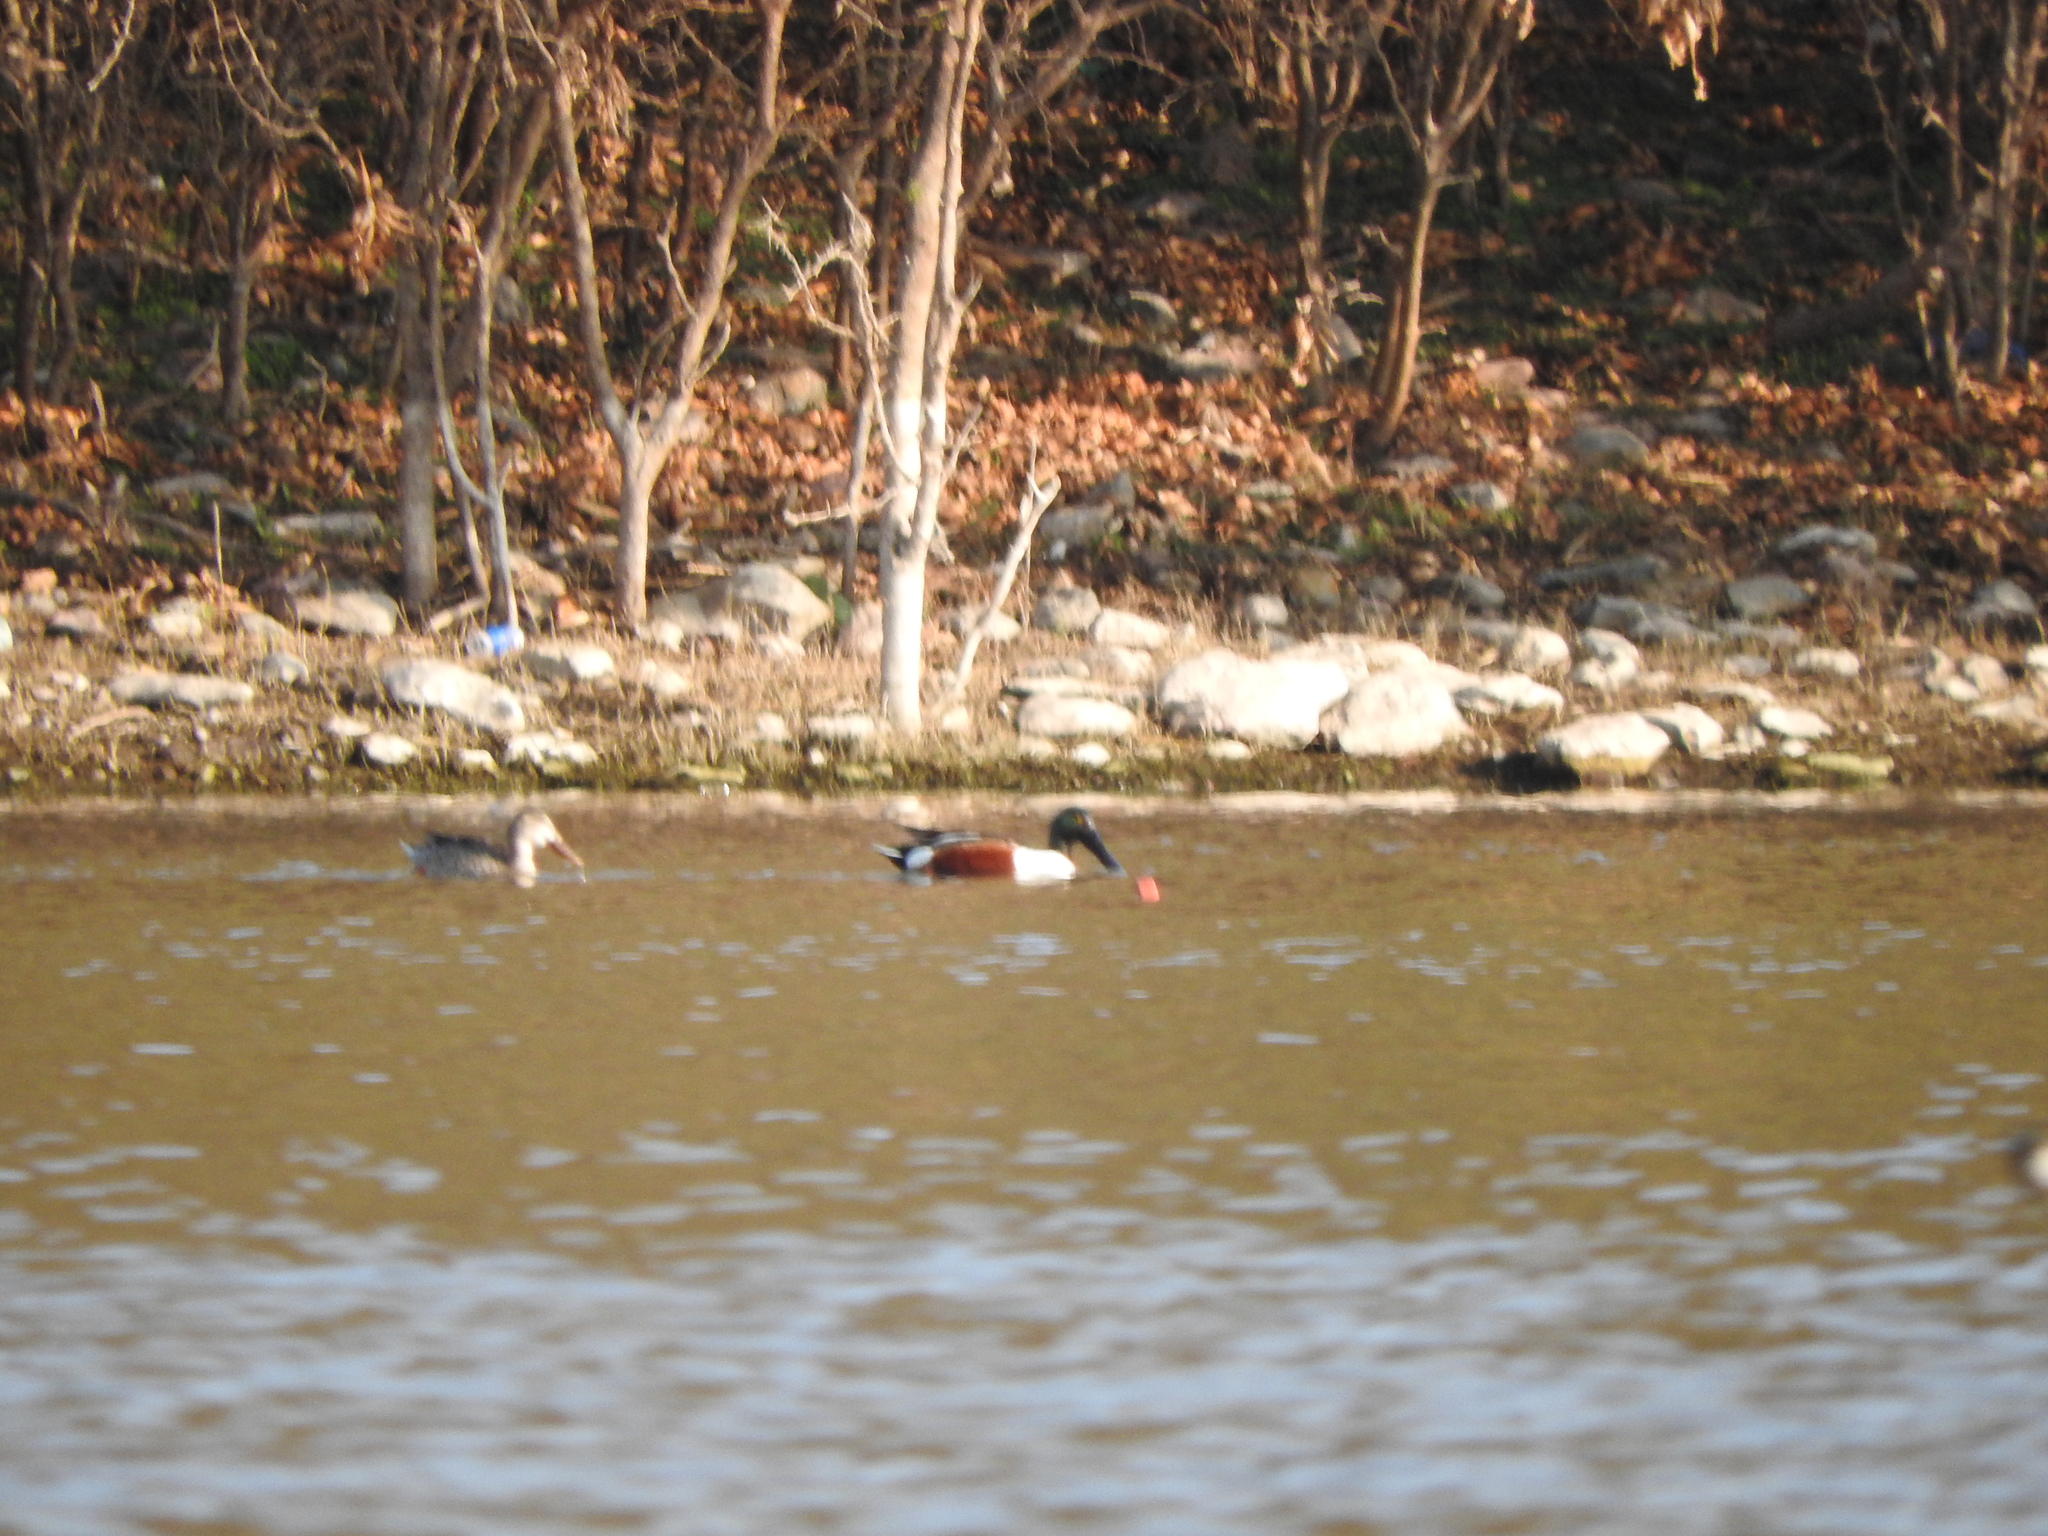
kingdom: Animalia
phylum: Chordata
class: Aves
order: Anseriformes
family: Anatidae
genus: Spatula
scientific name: Spatula clypeata
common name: Northern shoveler
